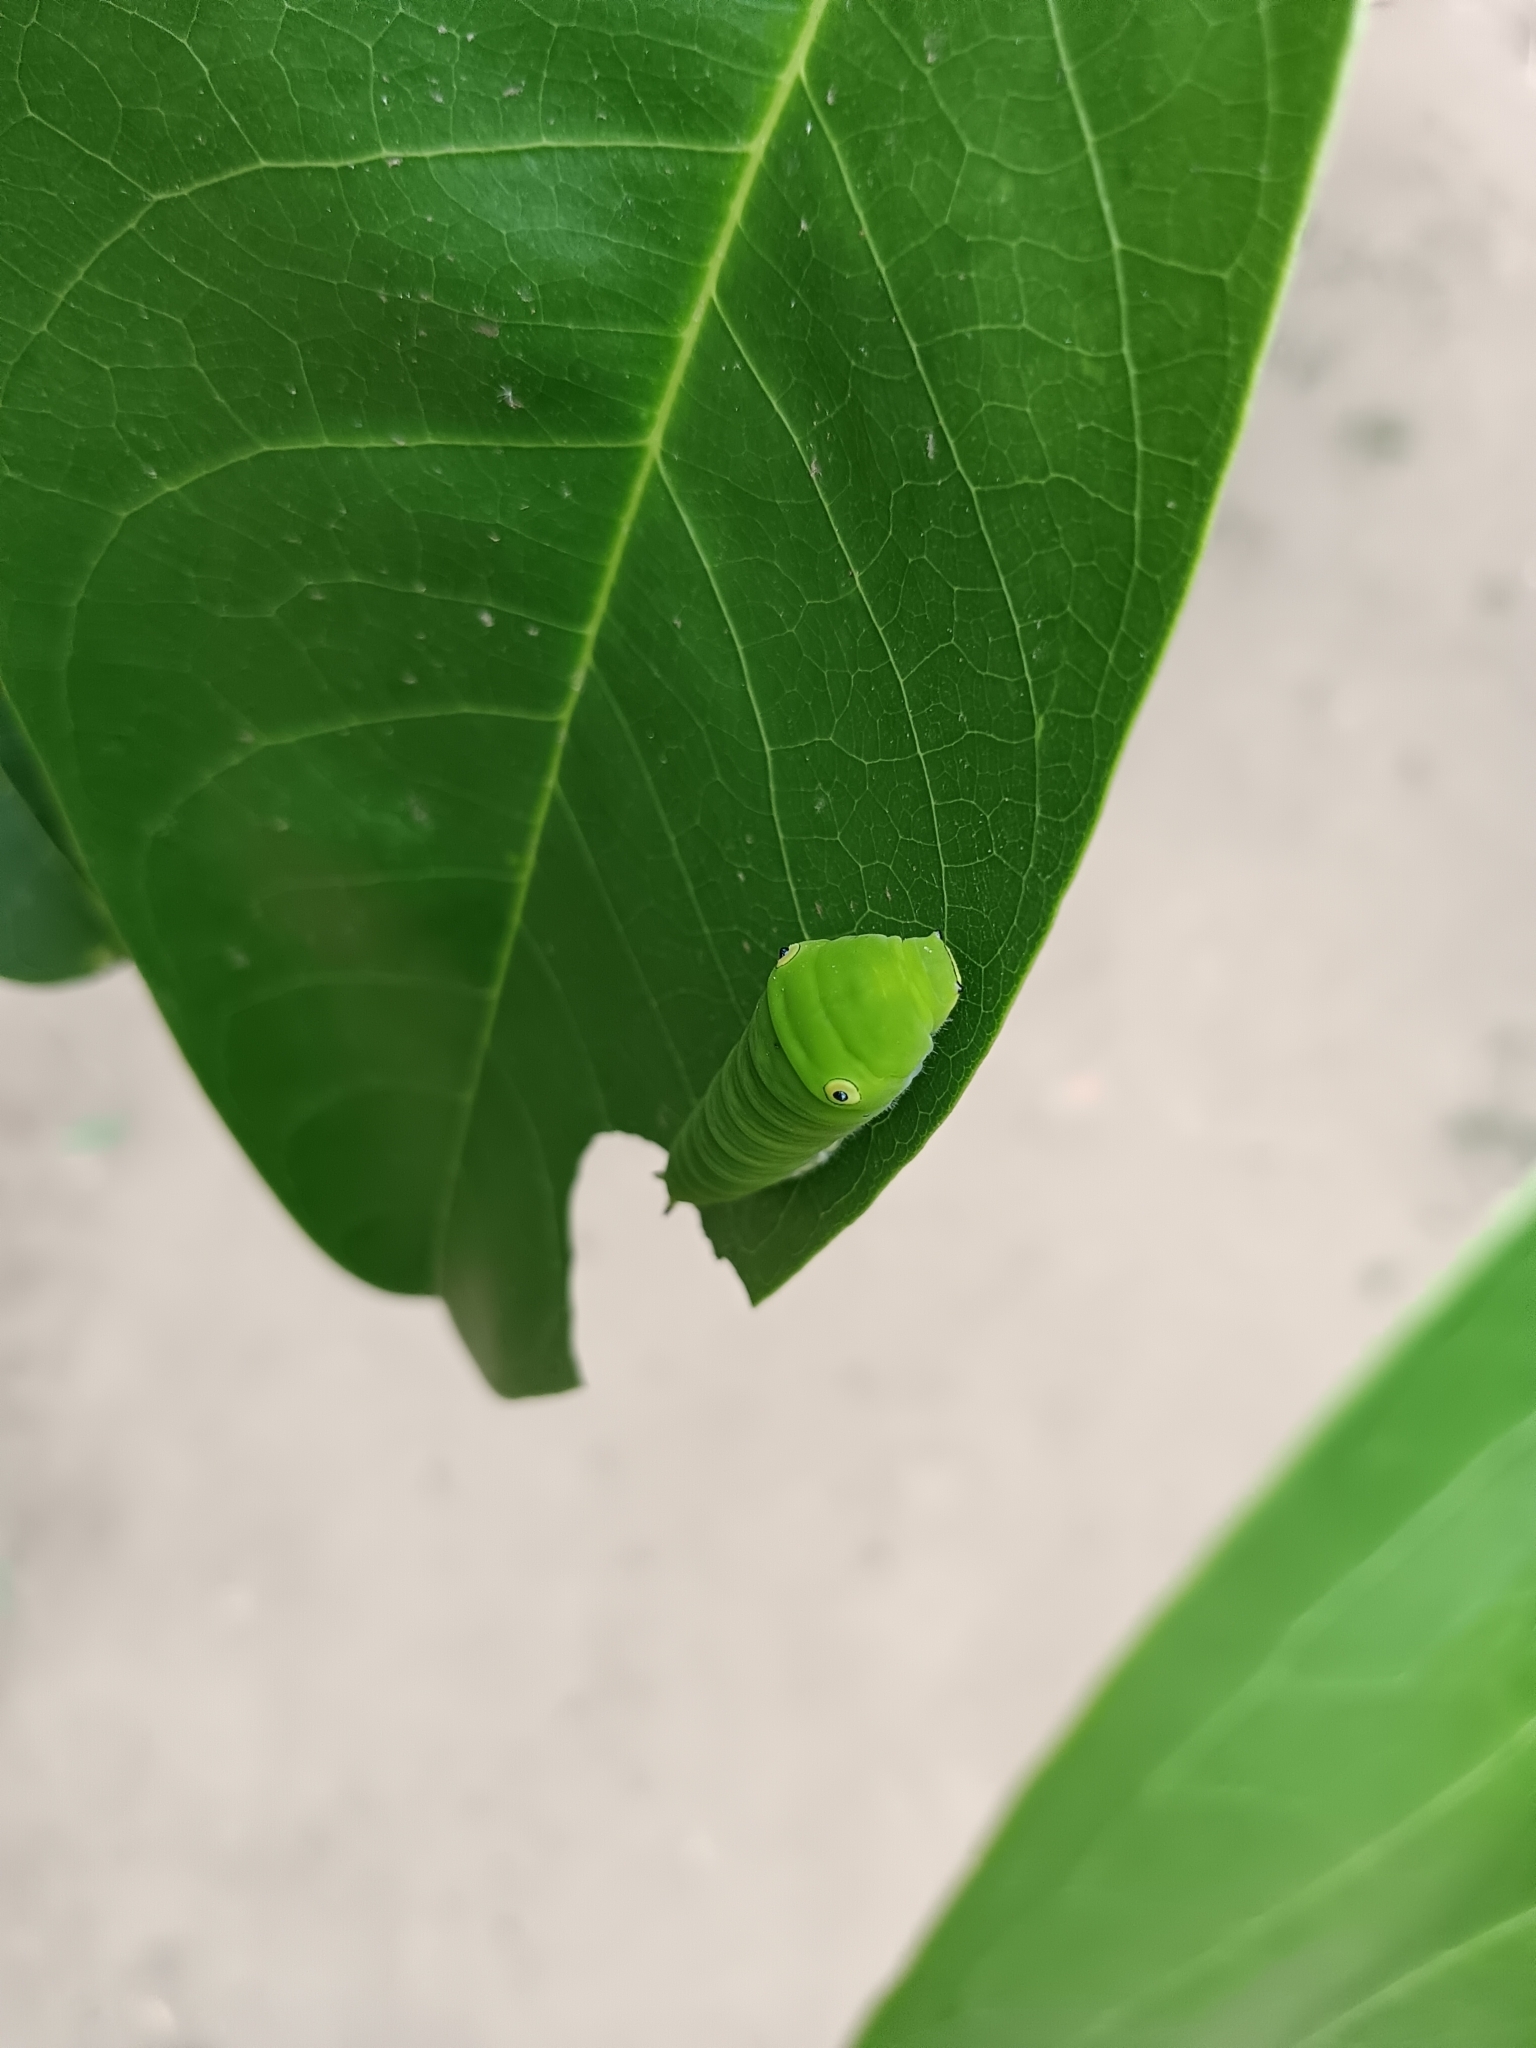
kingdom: Animalia
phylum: Arthropoda
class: Insecta
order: Lepidoptera
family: Papilionidae
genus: Graphium
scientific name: Graphium doson
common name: Common jay
